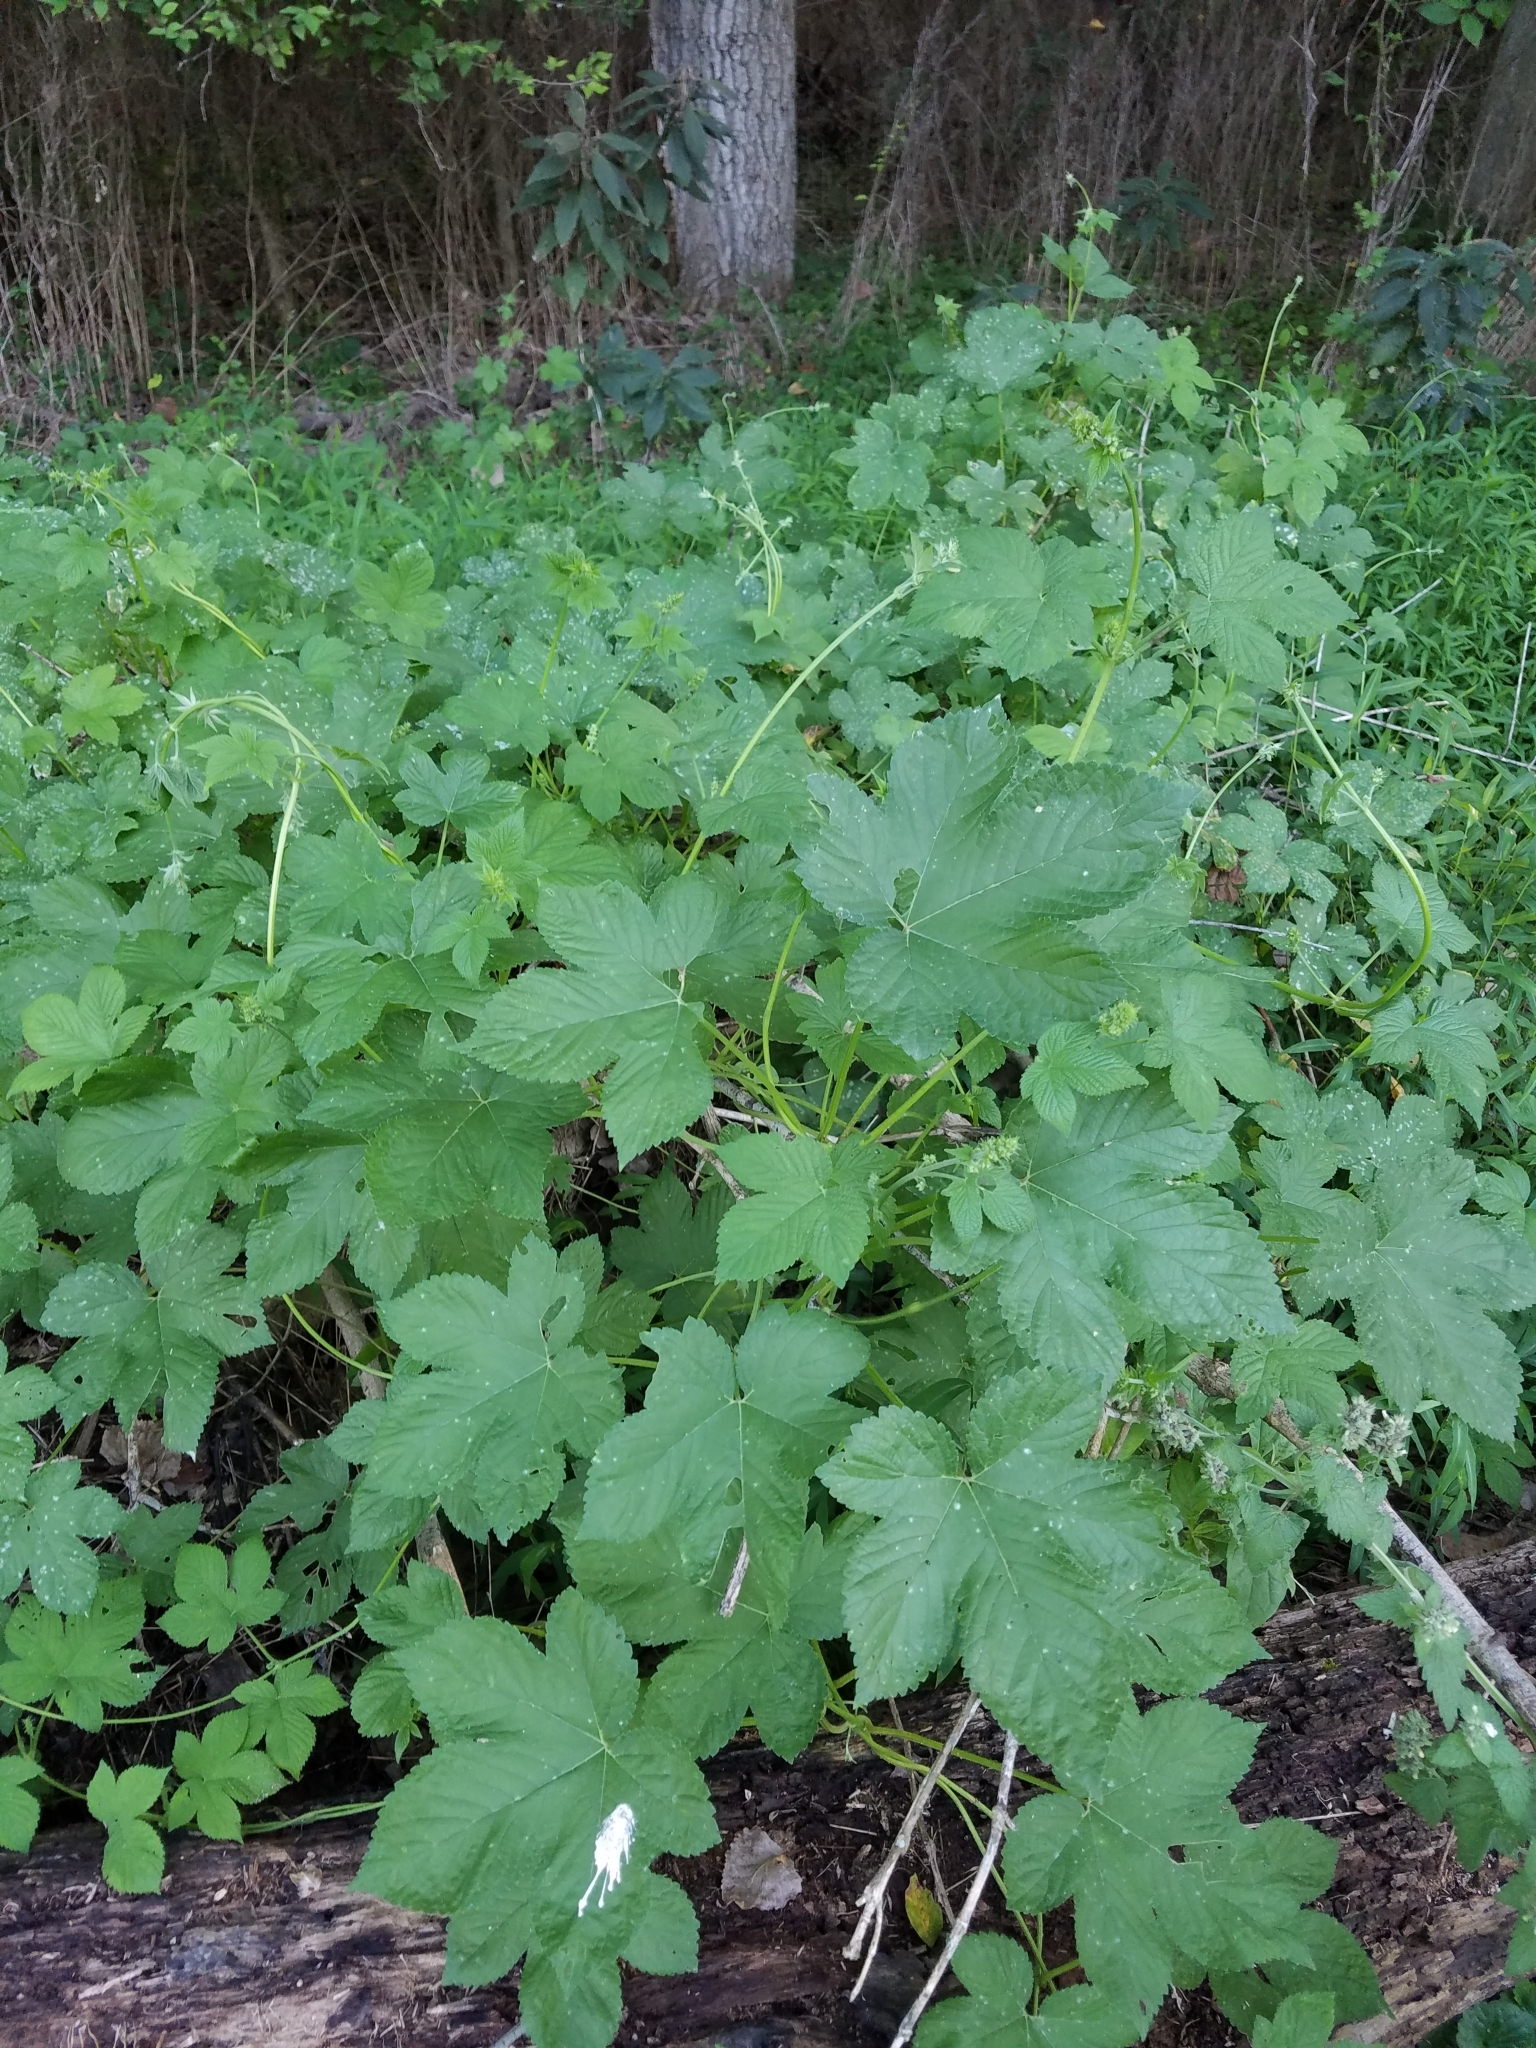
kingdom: Plantae
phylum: Tracheophyta
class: Magnoliopsida
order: Rosales
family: Cannabaceae
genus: Humulus
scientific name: Humulus scandens
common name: Japanese hop
